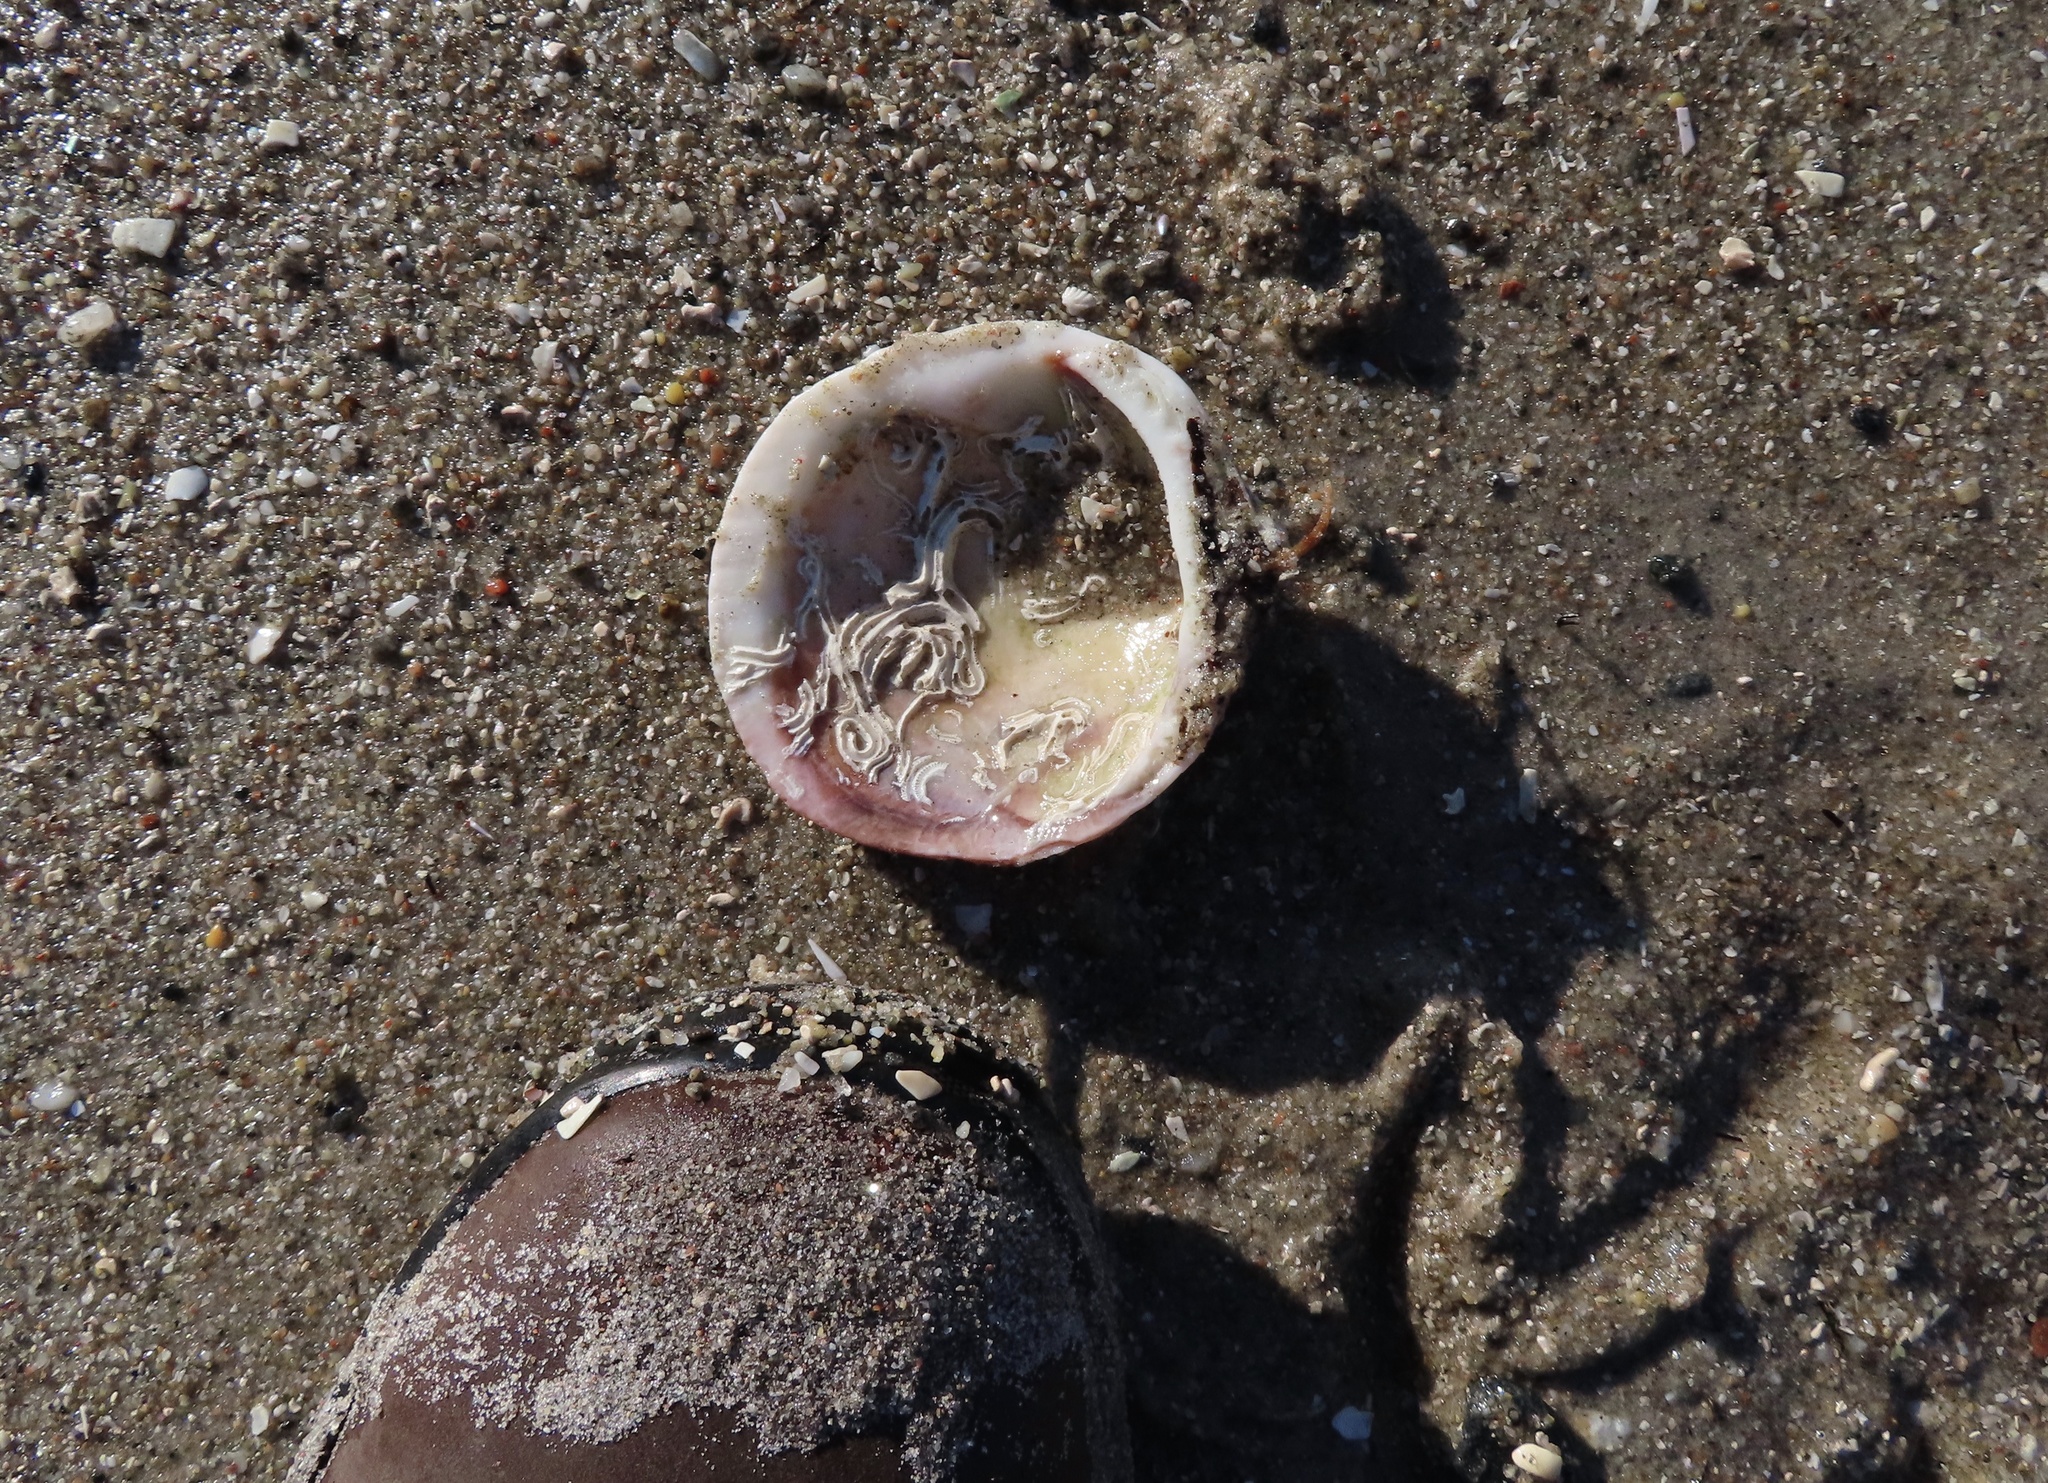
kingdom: Animalia
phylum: Mollusca
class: Bivalvia
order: Arcida
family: Glycymerididae
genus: Glycymeris
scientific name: Glycymeris glycymeris
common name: Dog-cockle
